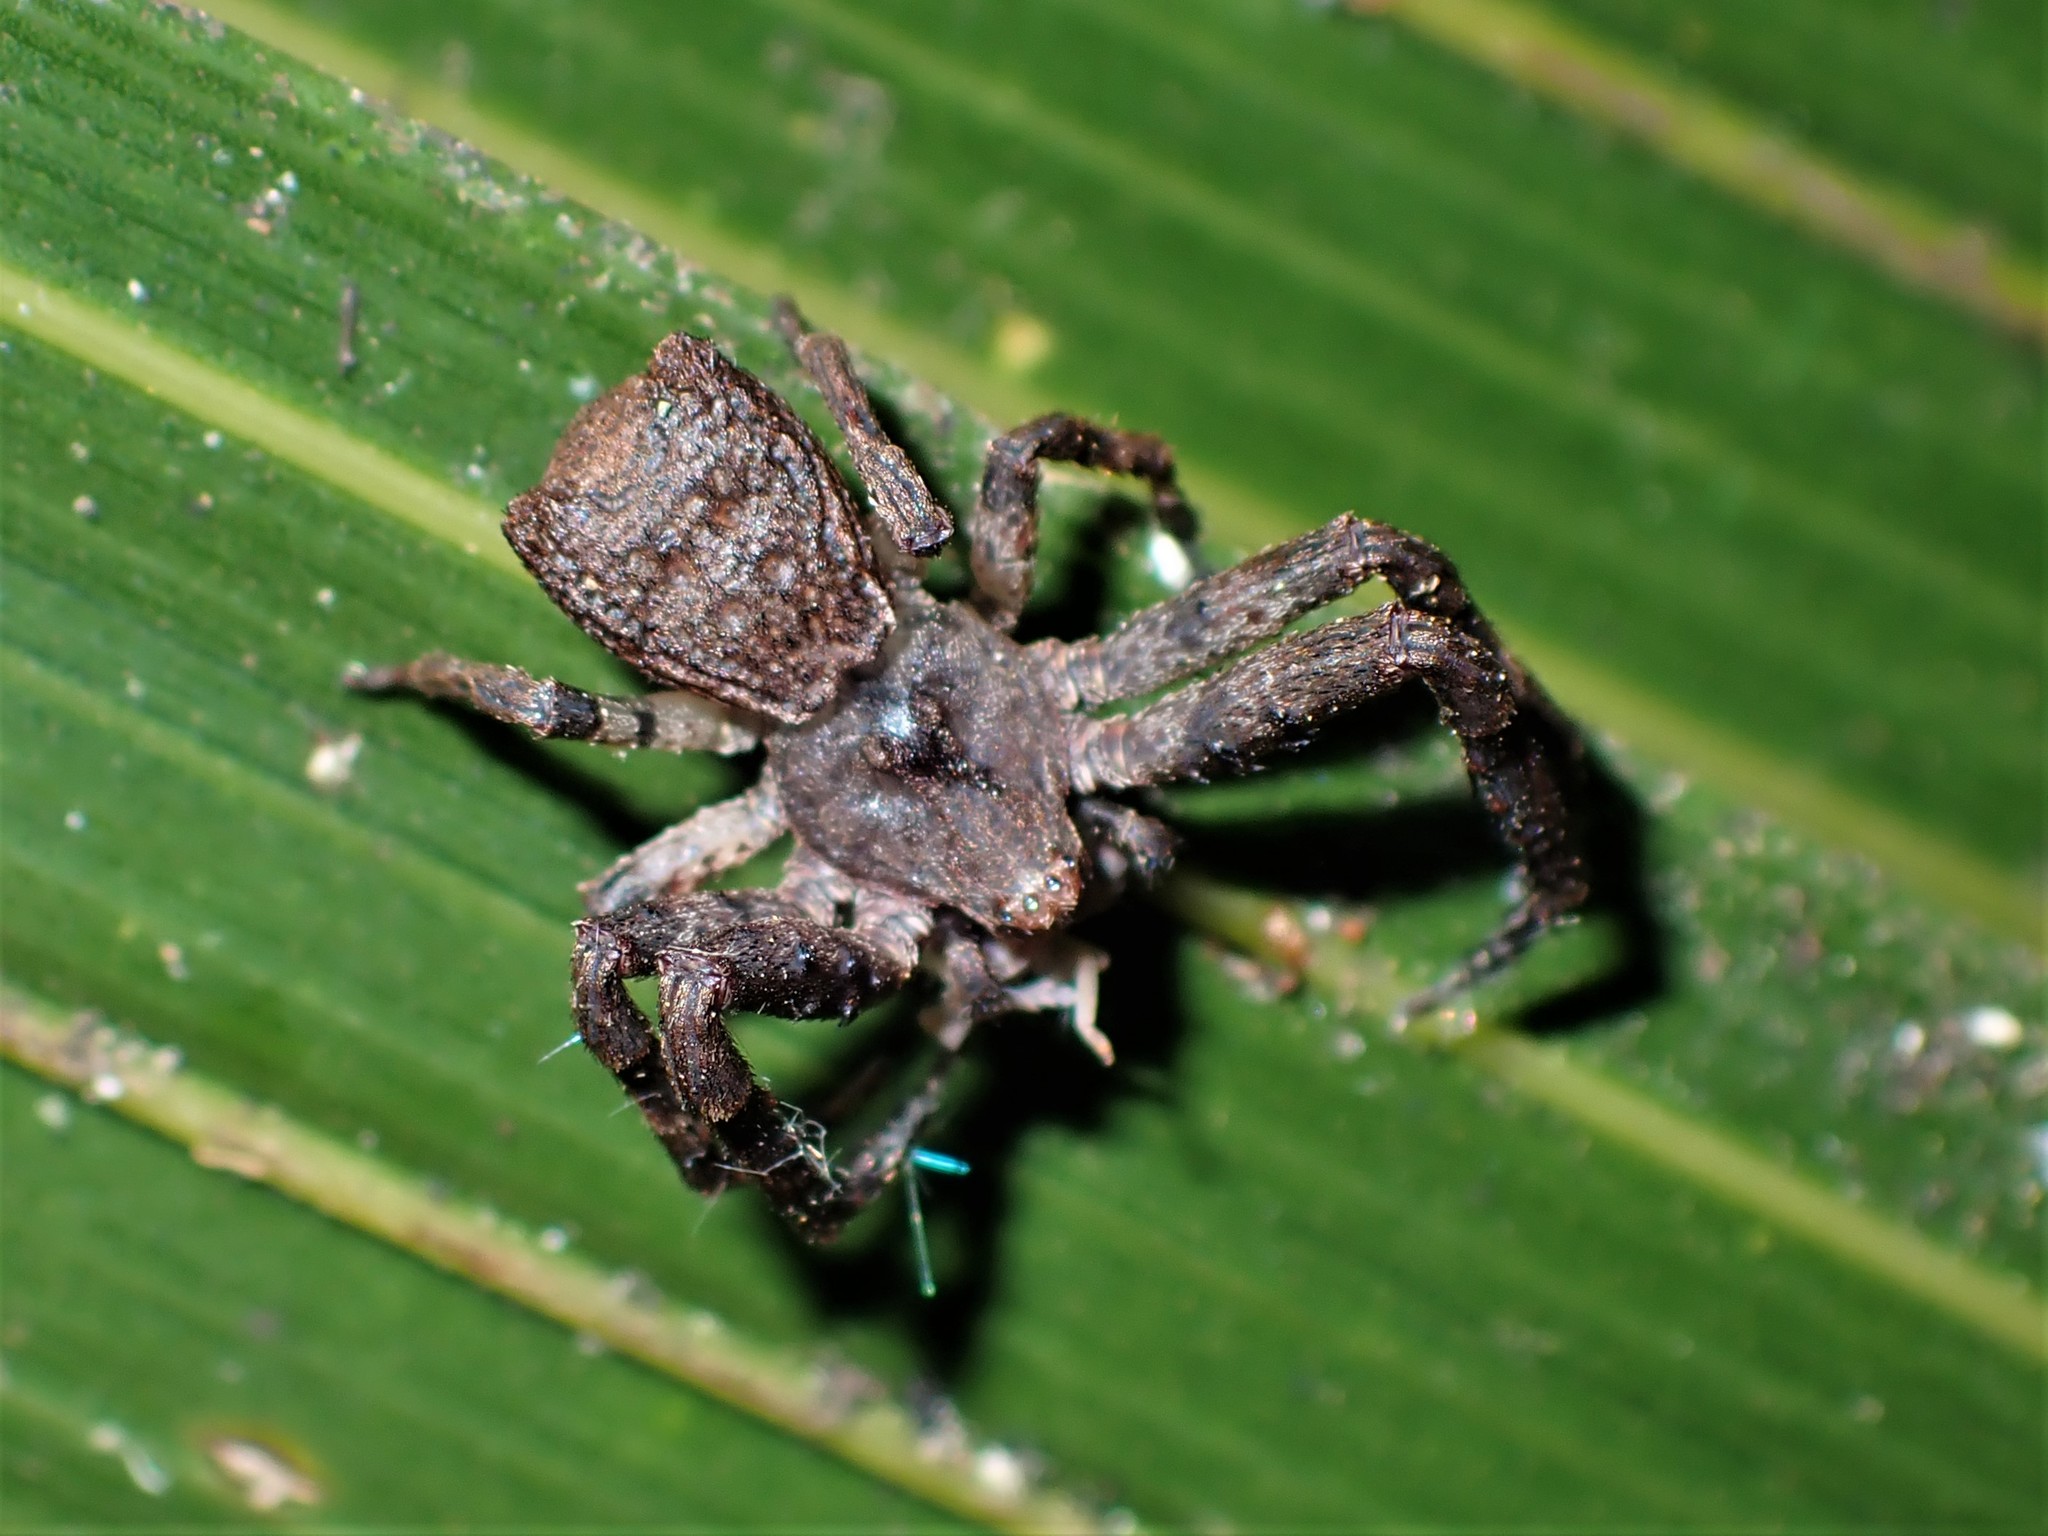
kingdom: Animalia
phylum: Arthropoda
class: Arachnida
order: Araneae
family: Thomisidae
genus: Sidymella
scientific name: Sidymella angularis
